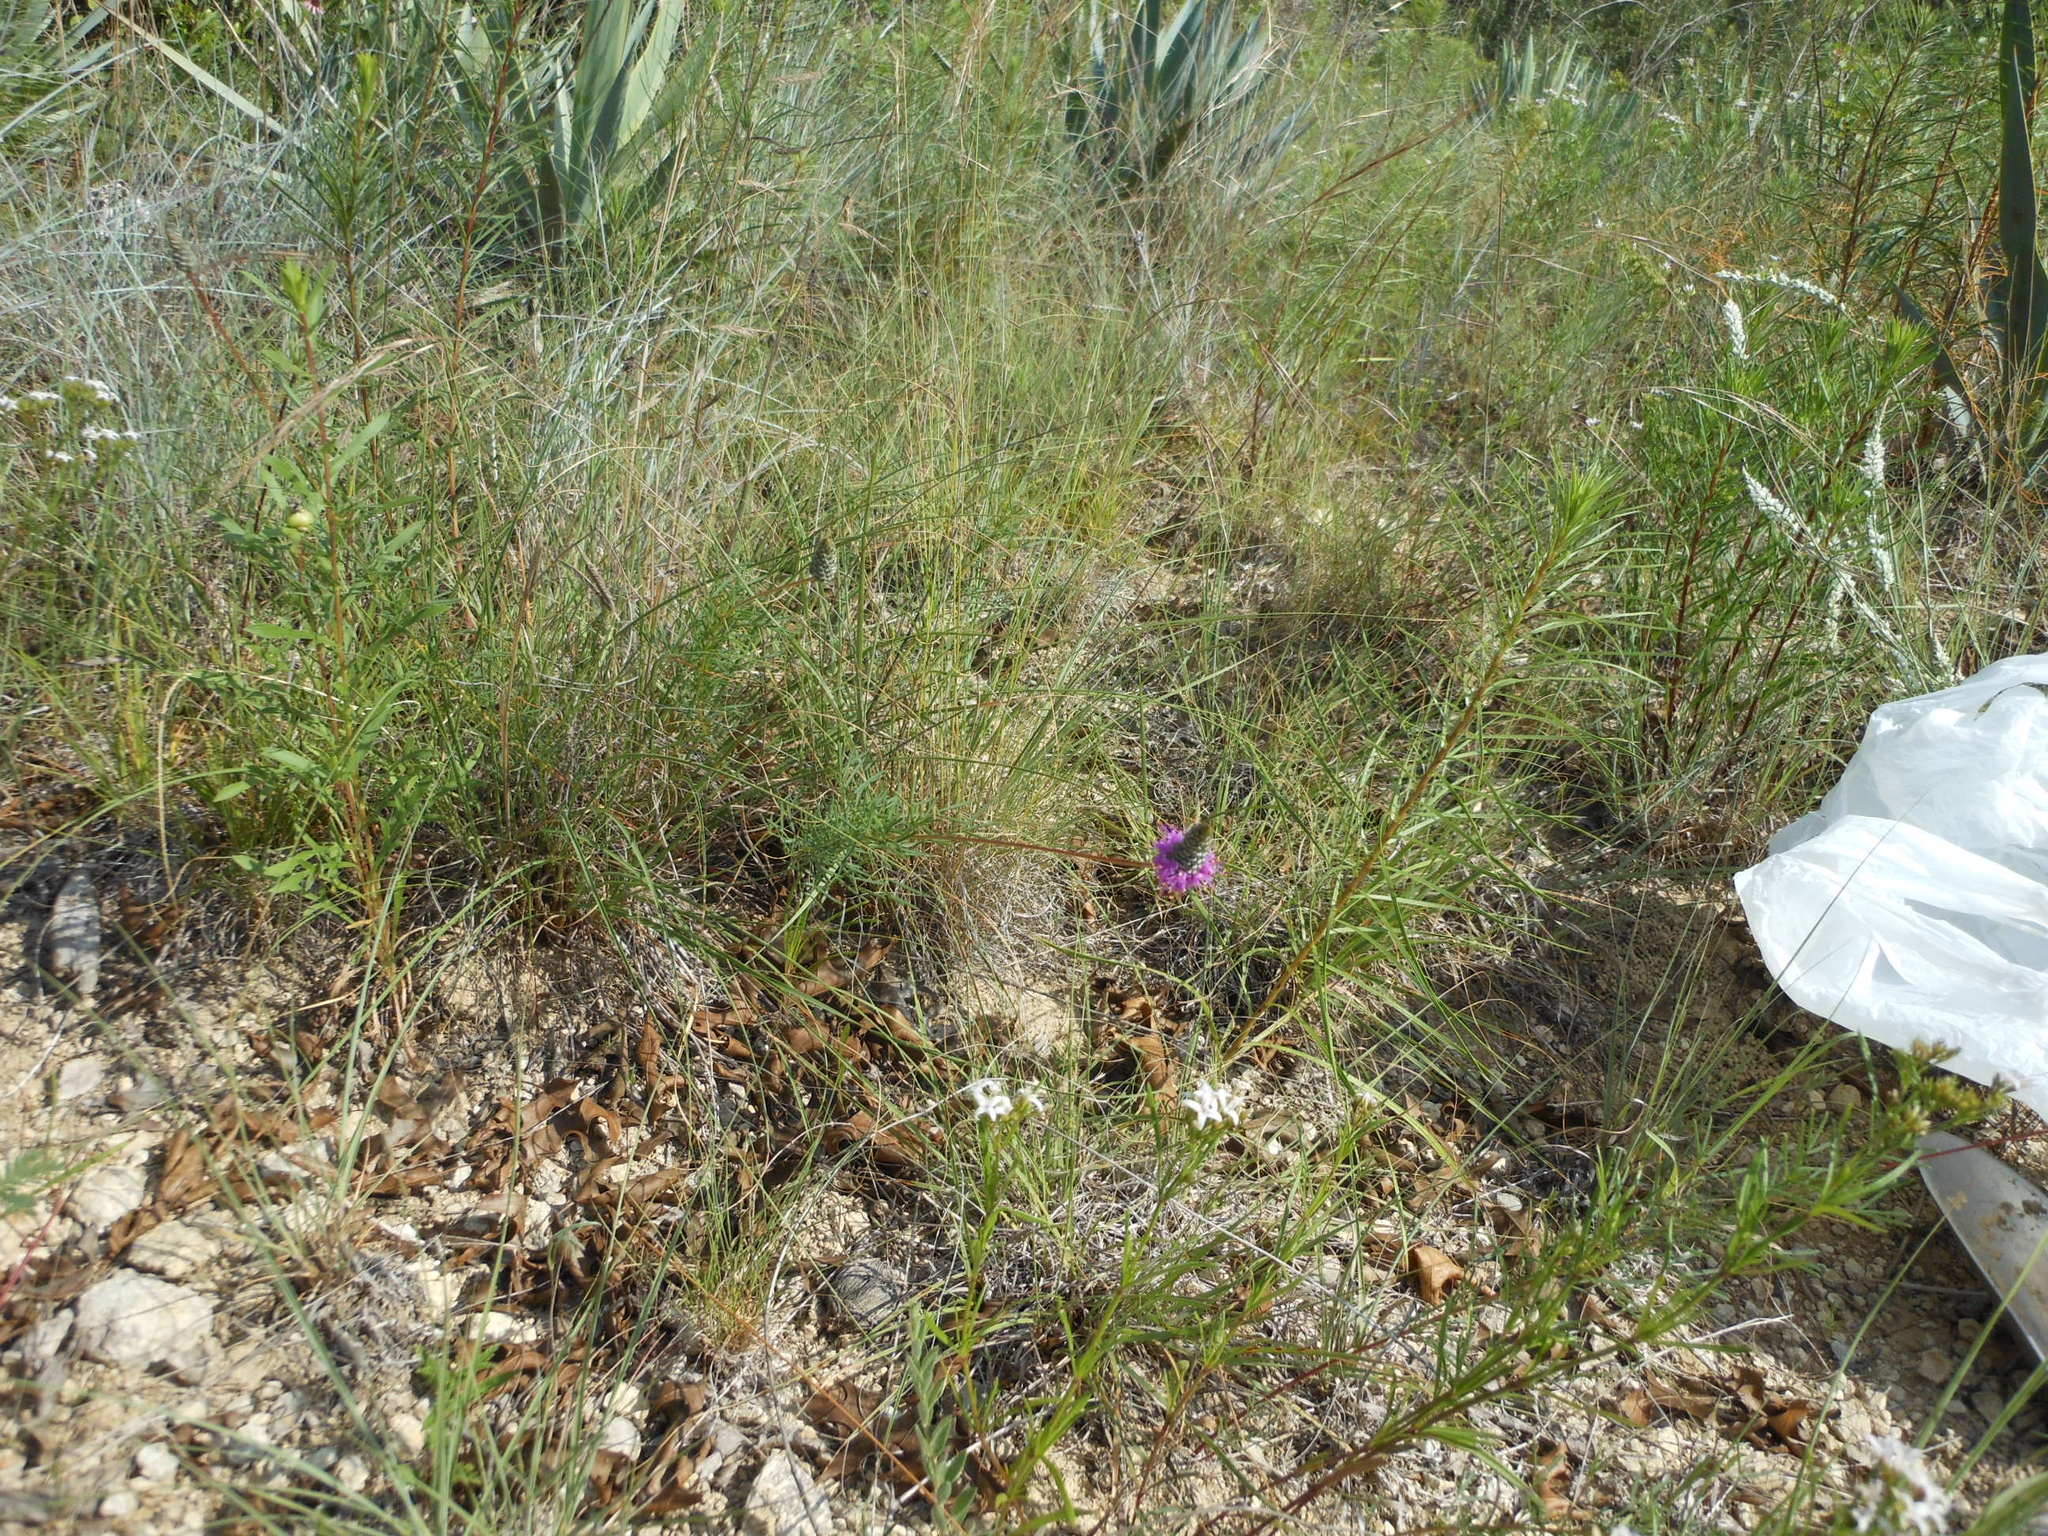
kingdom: Plantae
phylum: Tracheophyta
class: Magnoliopsida
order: Fabales
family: Fabaceae
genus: Dalea
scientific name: Dalea tenuis
